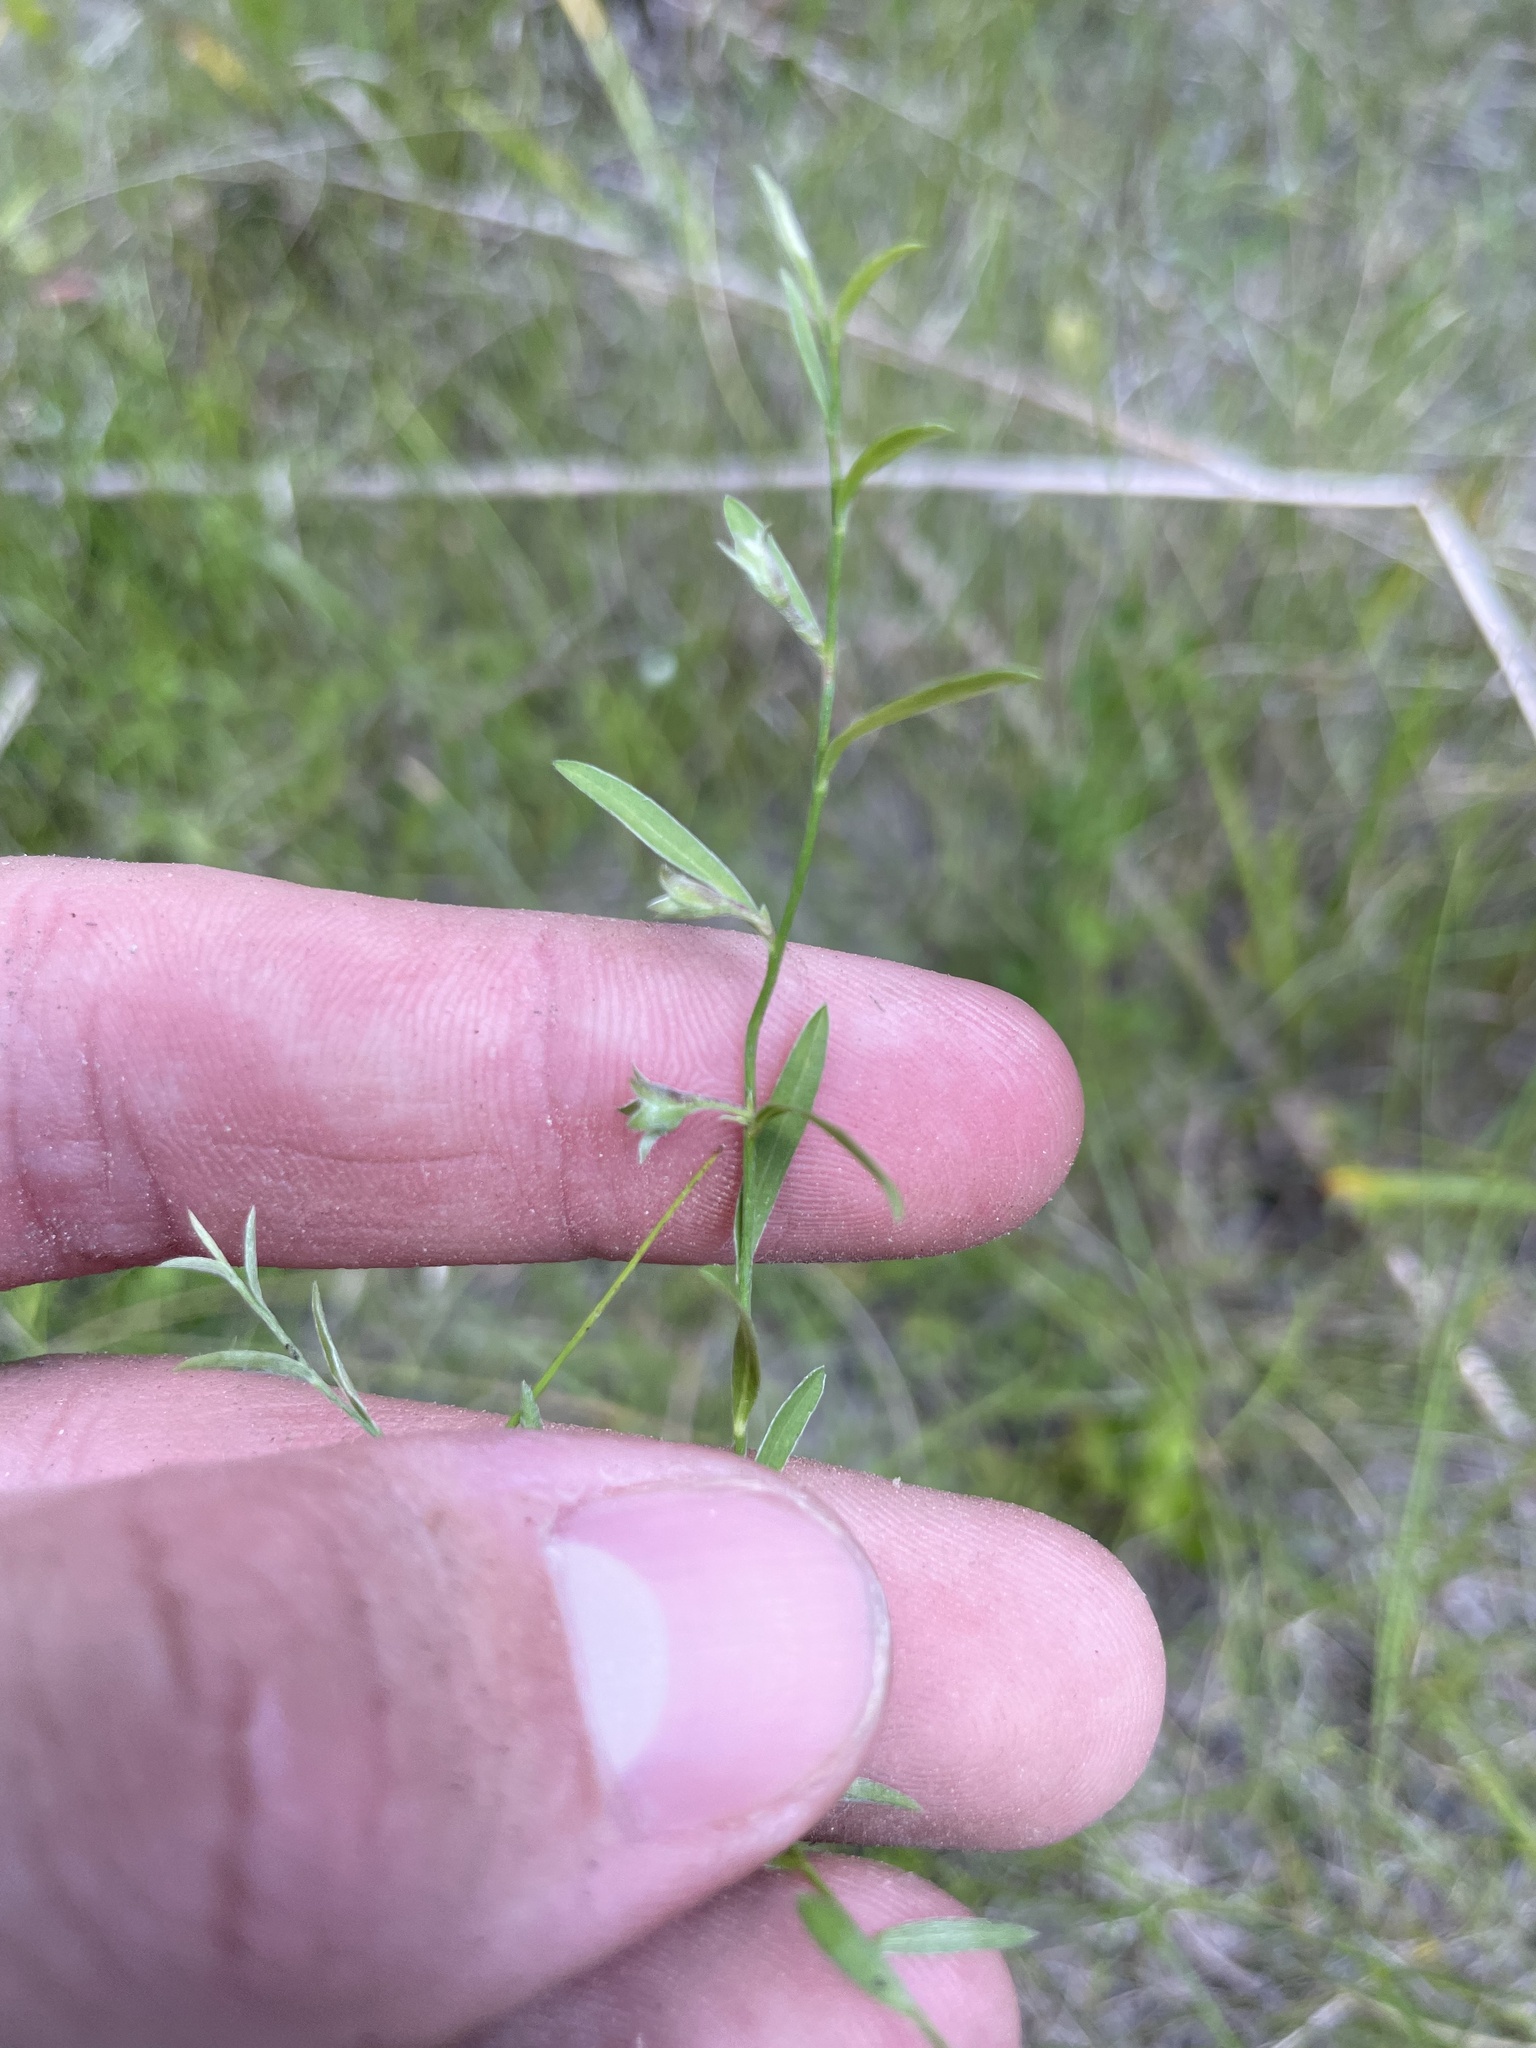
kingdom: Plantae
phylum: Tracheophyta
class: Magnoliopsida
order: Solanales
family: Convolvulaceae
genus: Evolvulus
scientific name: Evolvulus sericeus
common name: Blue dots
